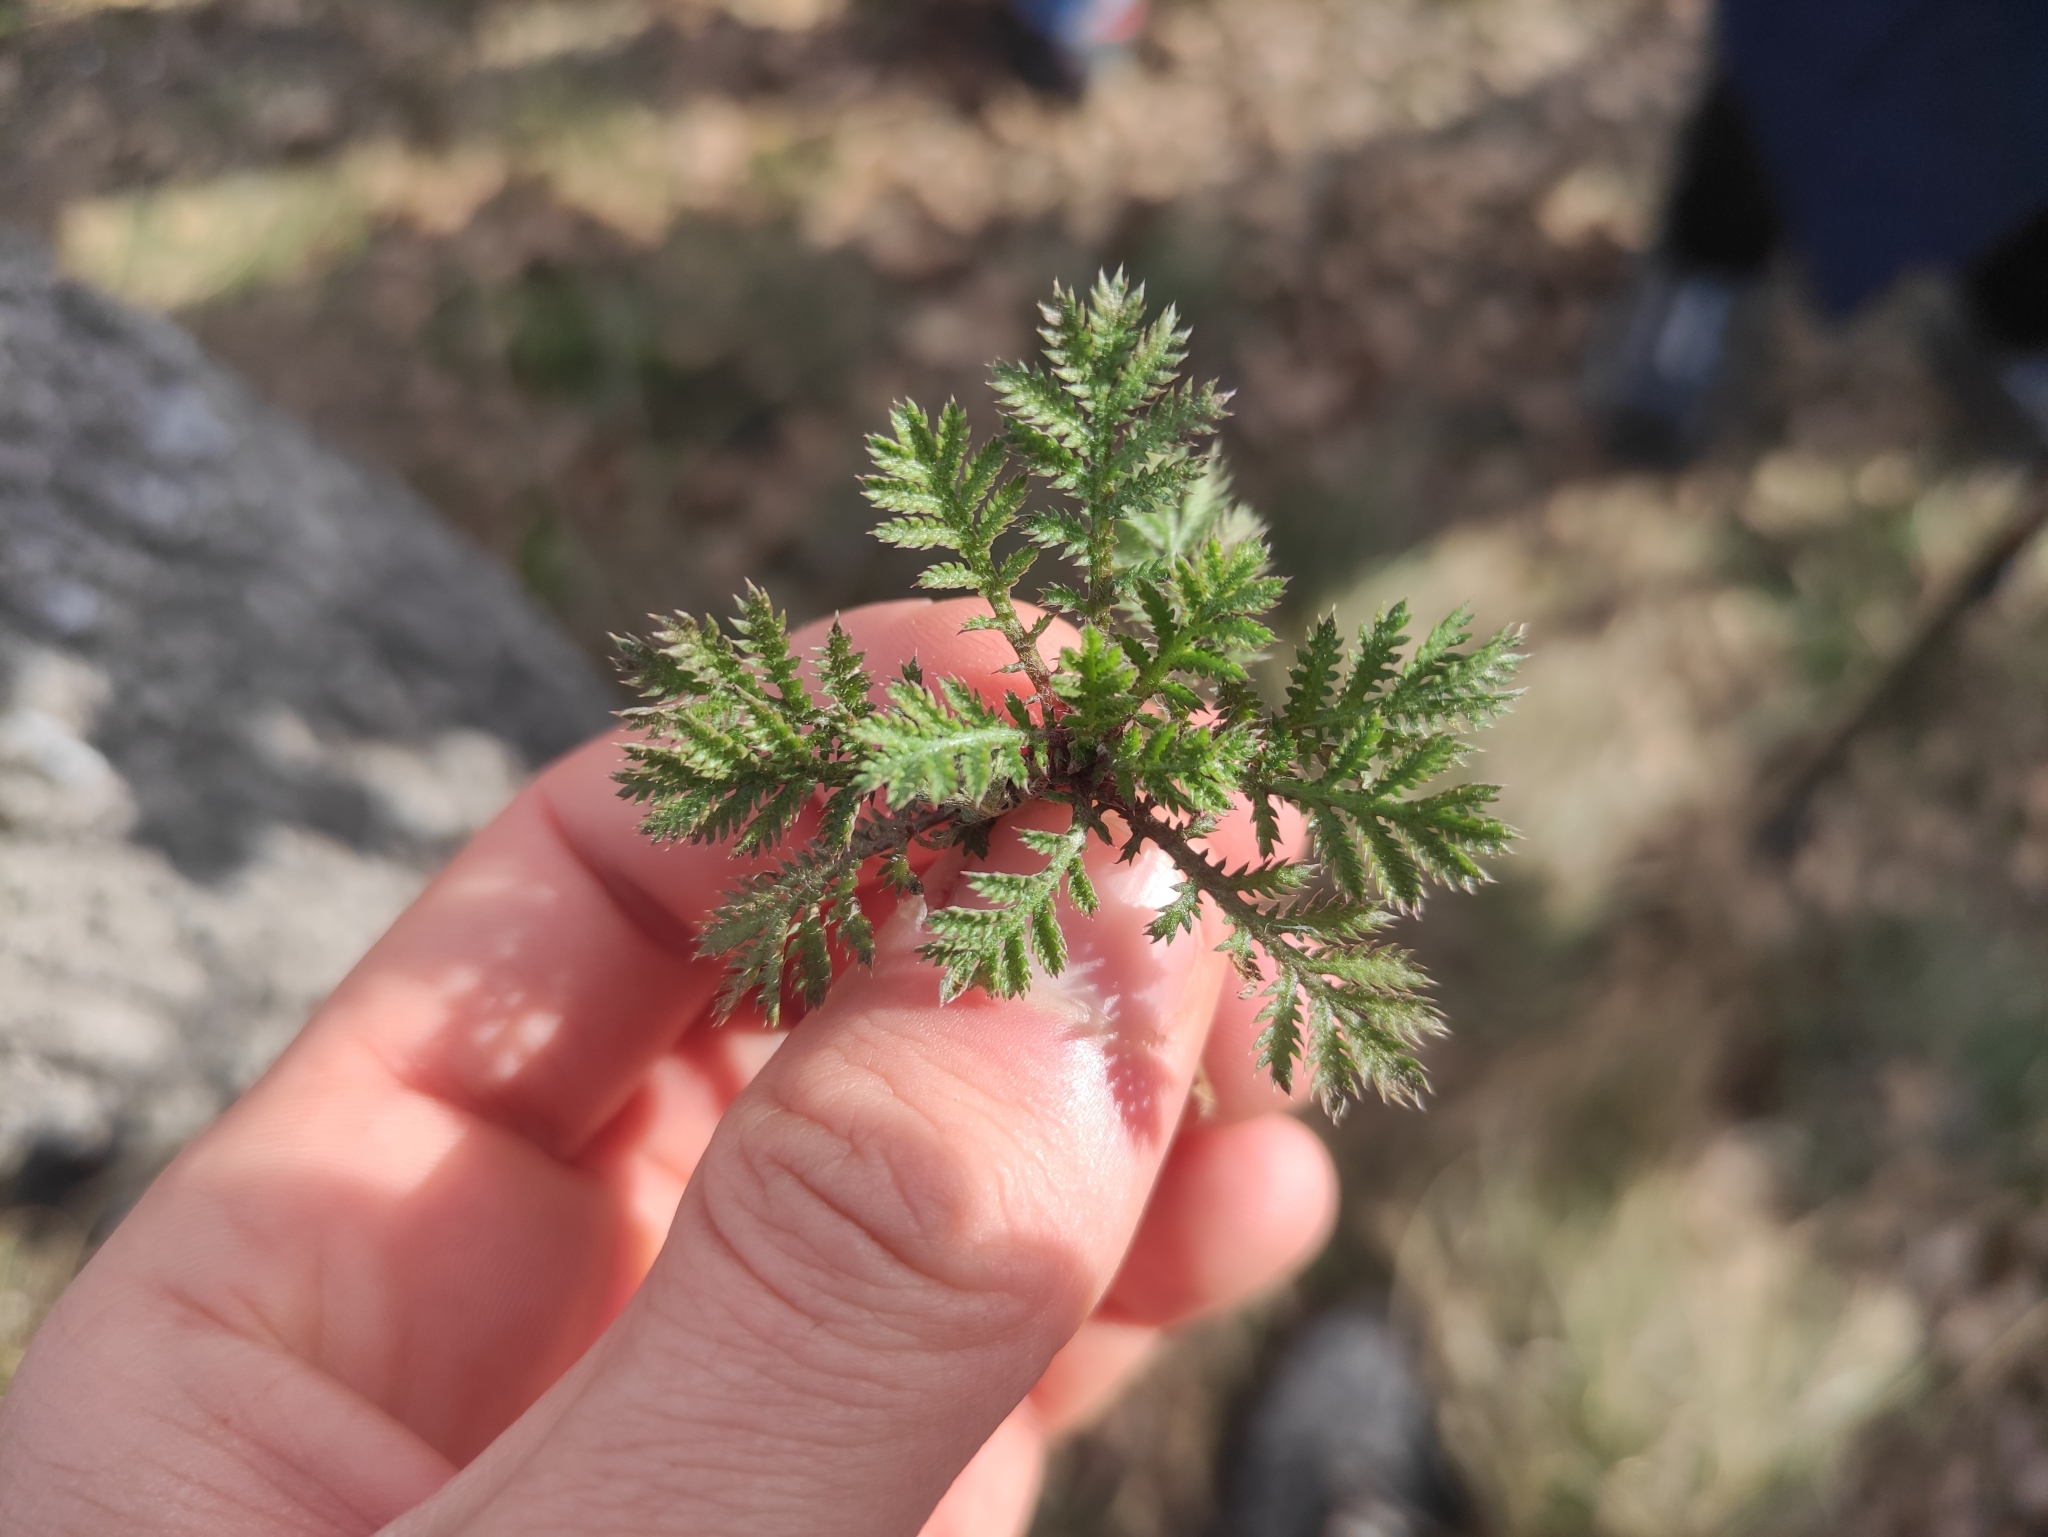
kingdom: Plantae
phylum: Tracheophyta
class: Magnoliopsida
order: Asterales
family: Asteraceae
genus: Cota
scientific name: Cota tinctoria
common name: Golden chamomile
